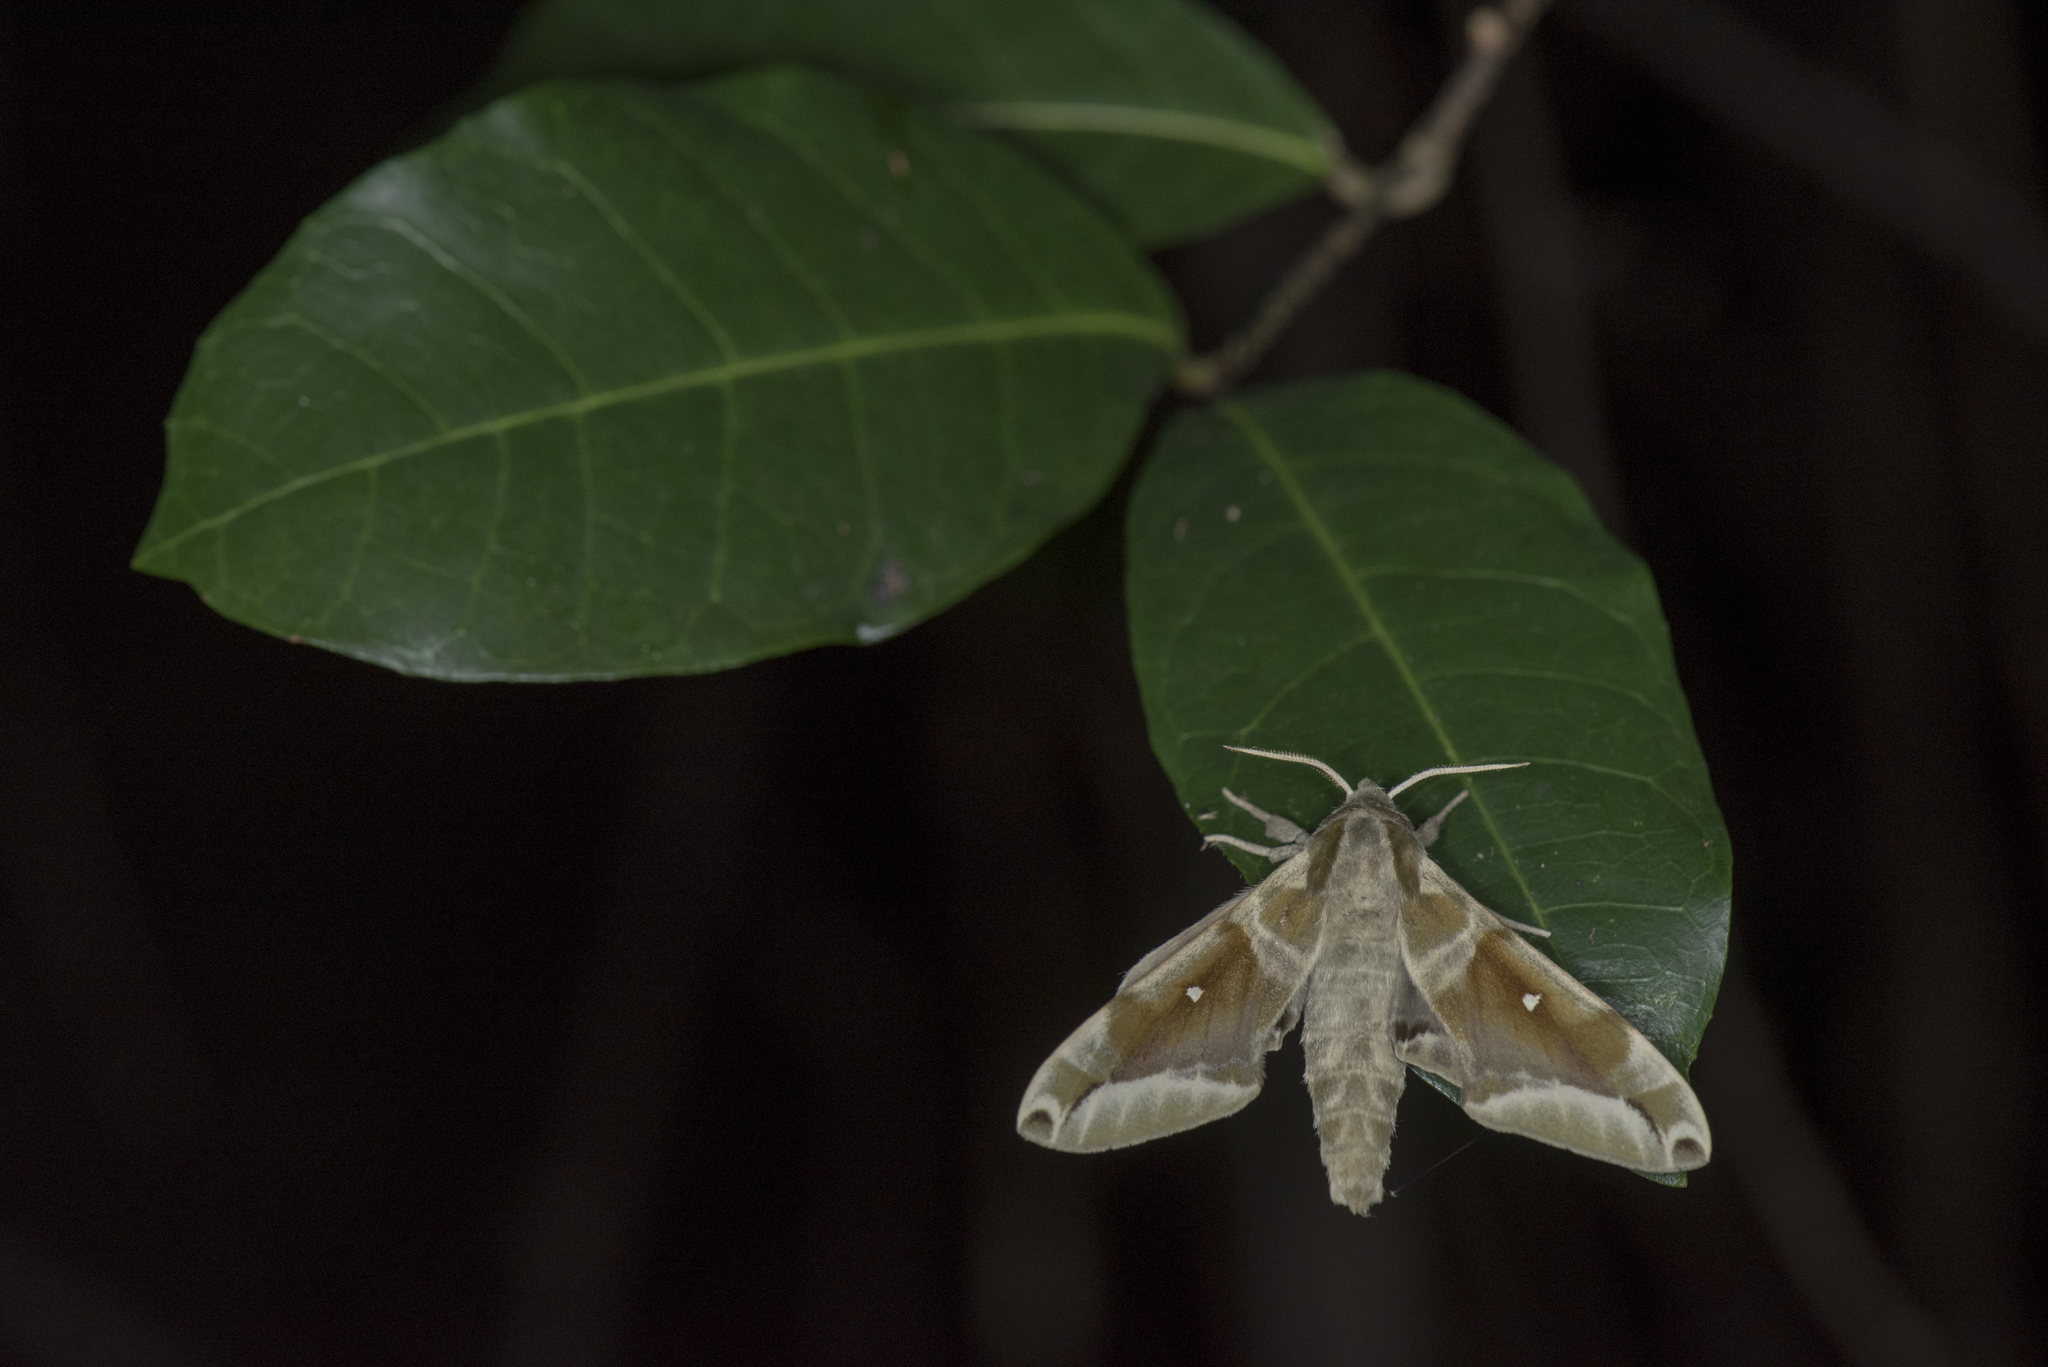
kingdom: Animalia
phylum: Arthropoda
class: Insecta
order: Lepidoptera
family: Sphingidae
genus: Parum
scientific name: Parum colligata
